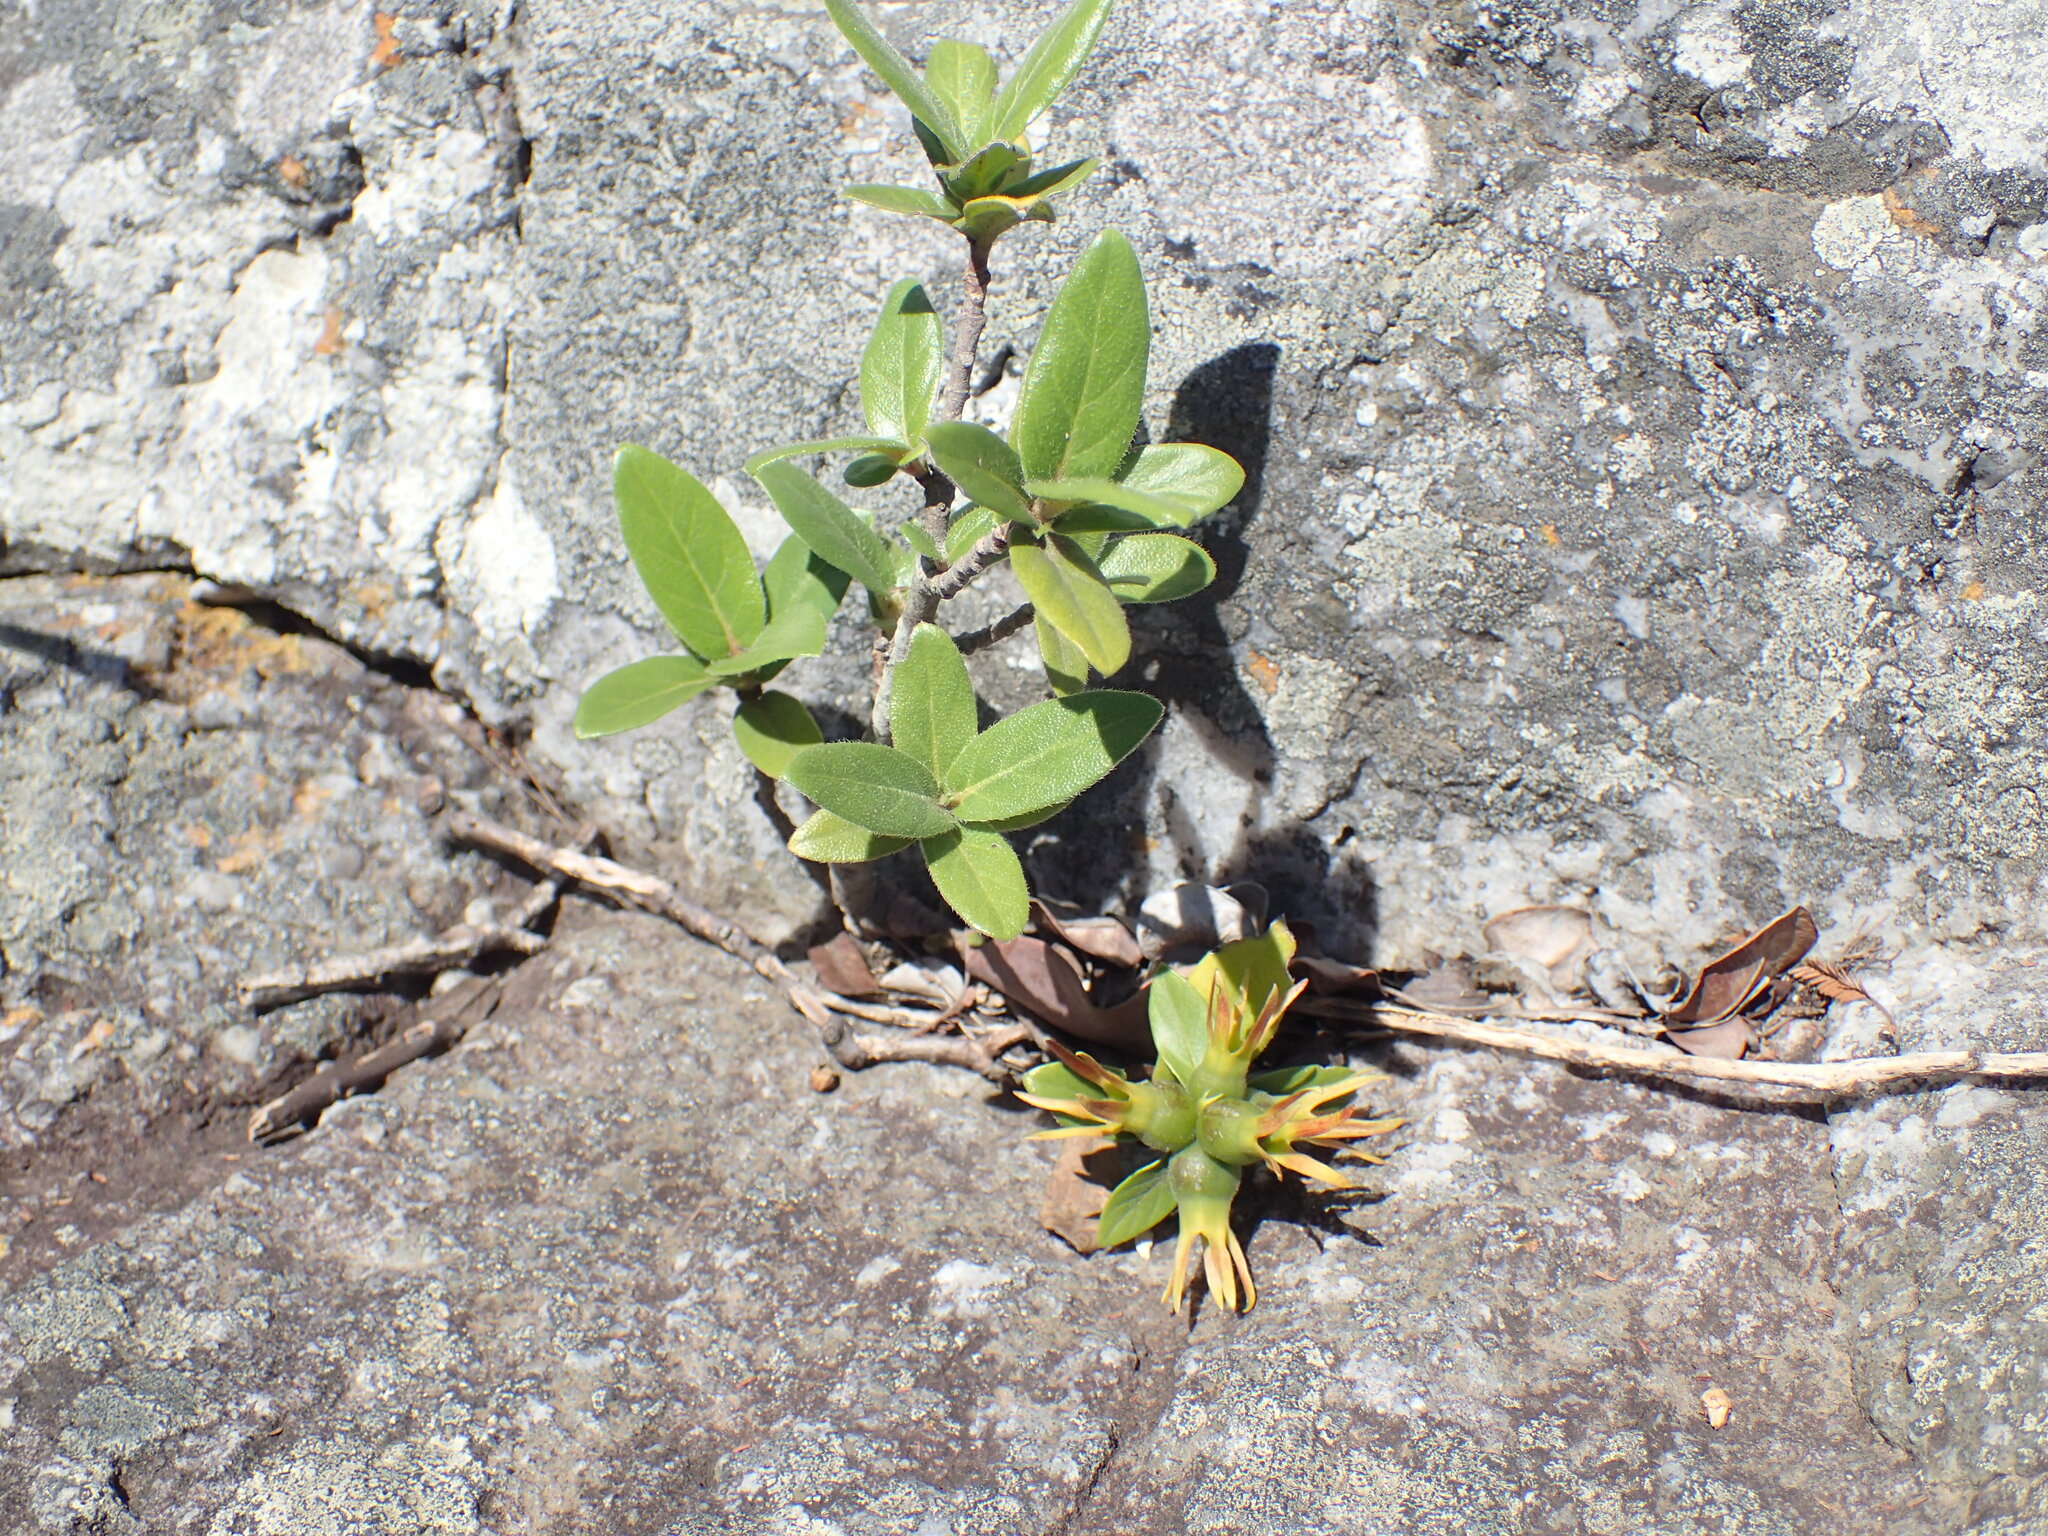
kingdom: Plantae
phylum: Tracheophyta
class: Magnoliopsida
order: Gentianales
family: Rubiaceae
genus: Burchellia
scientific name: Burchellia bubalina
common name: Wild pomegranate
